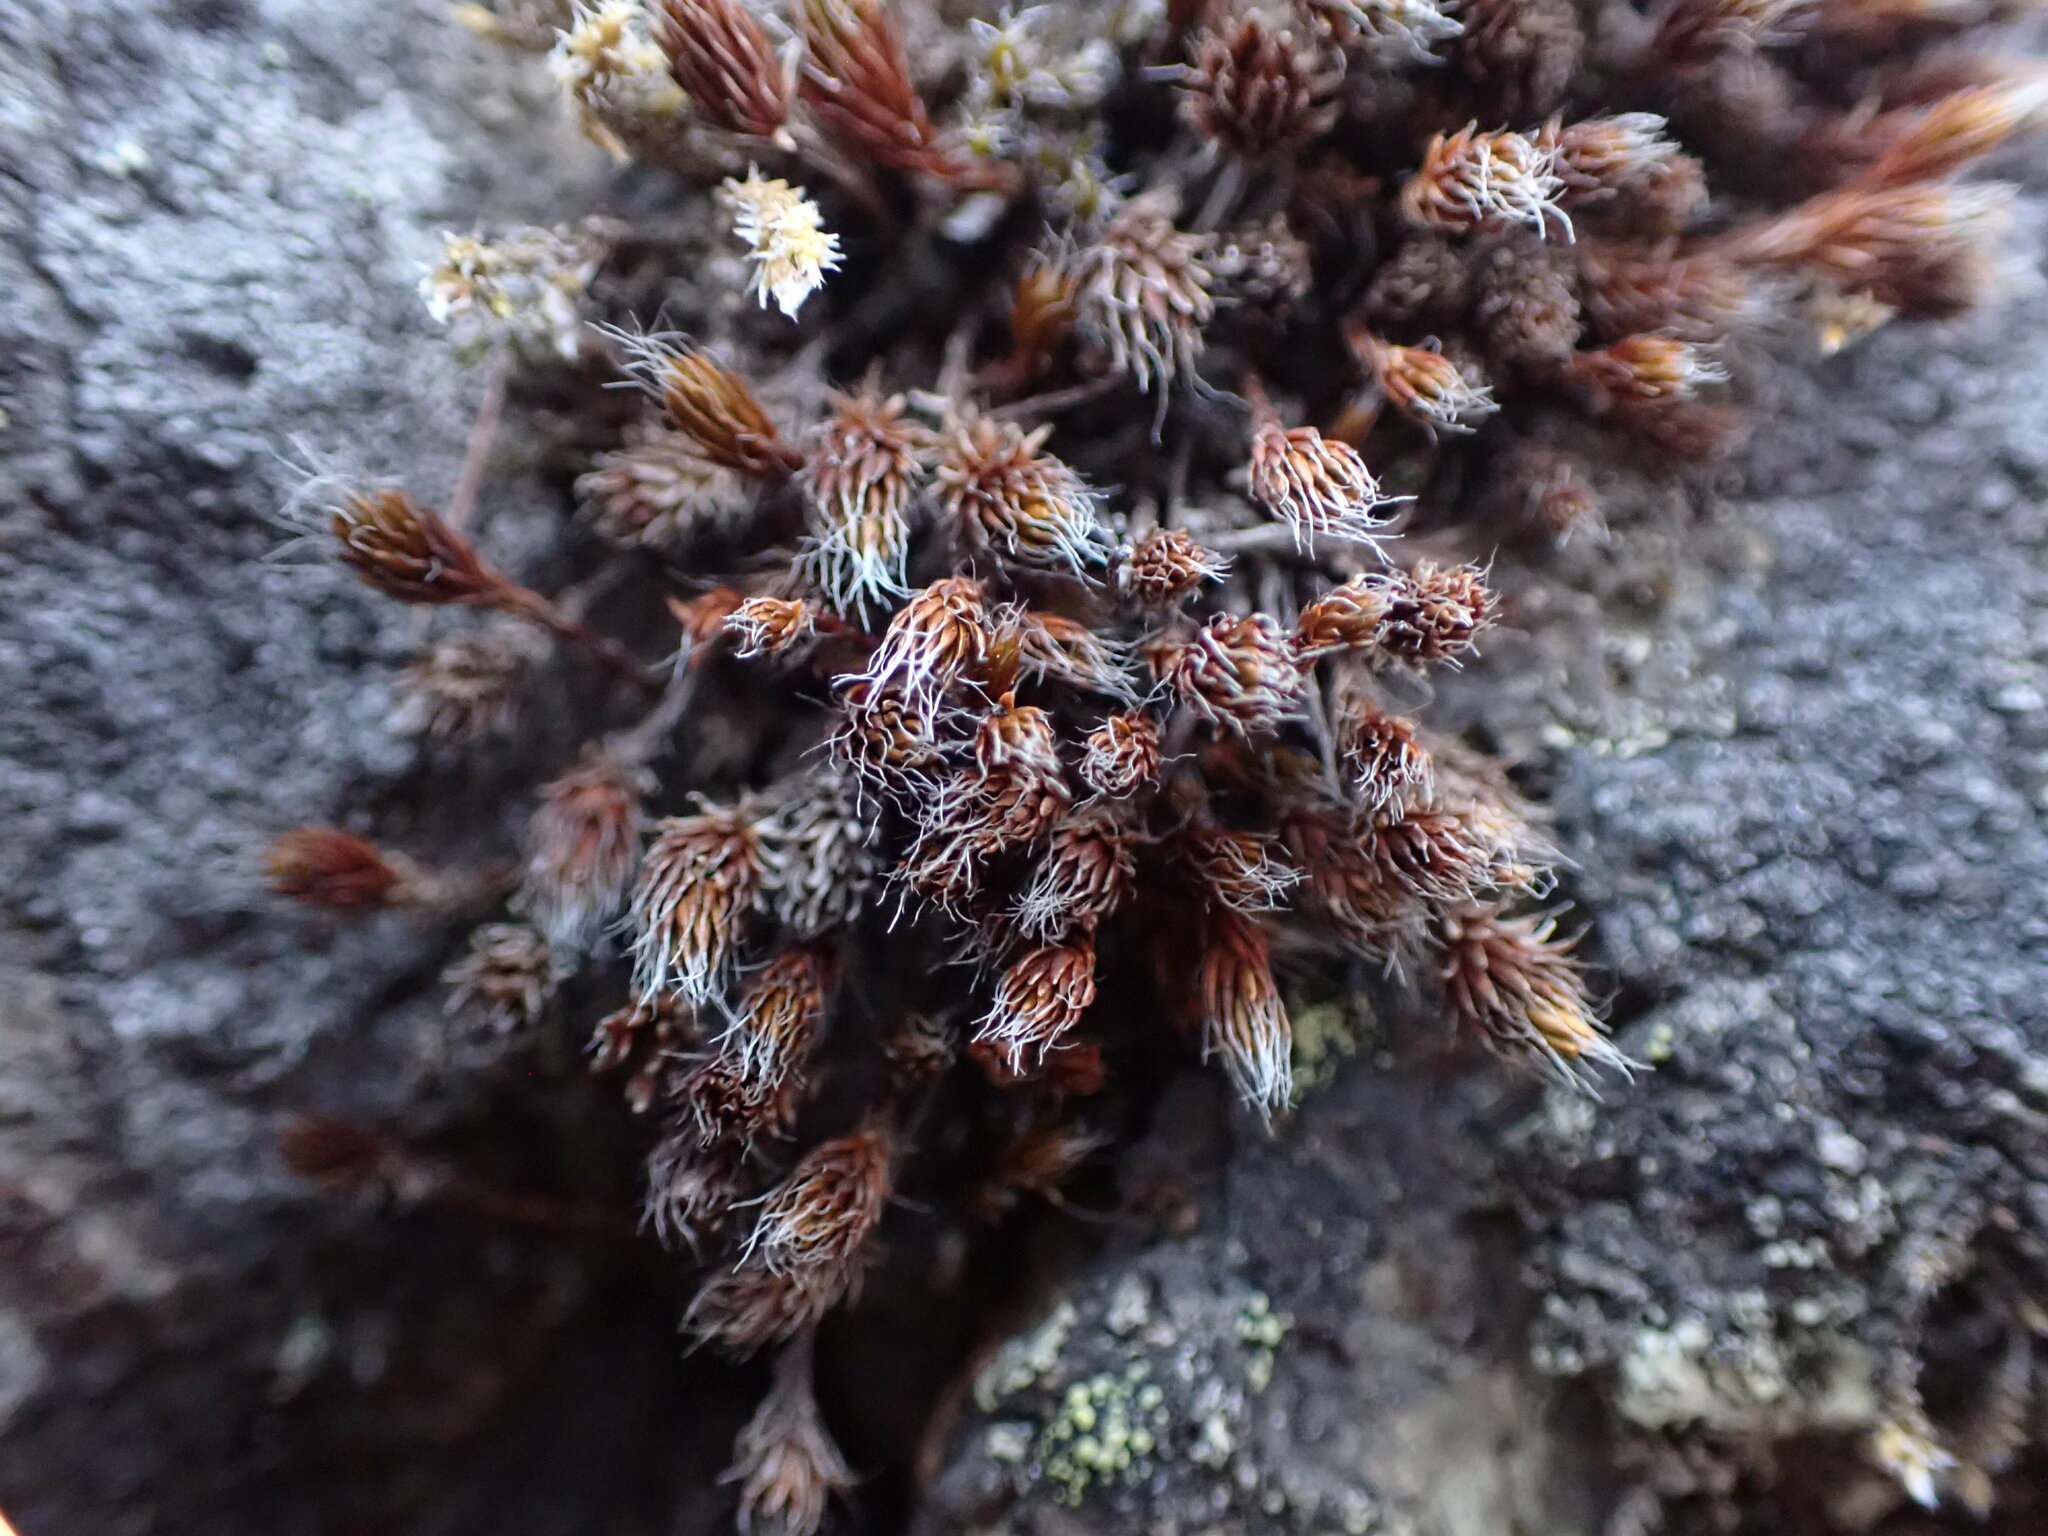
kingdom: Plantae
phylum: Bryophyta
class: Polytrichopsida
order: Polytrichales
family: Polytrichaceae
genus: Polytrichum
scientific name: Polytrichum piliferum
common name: Bristly haircap
